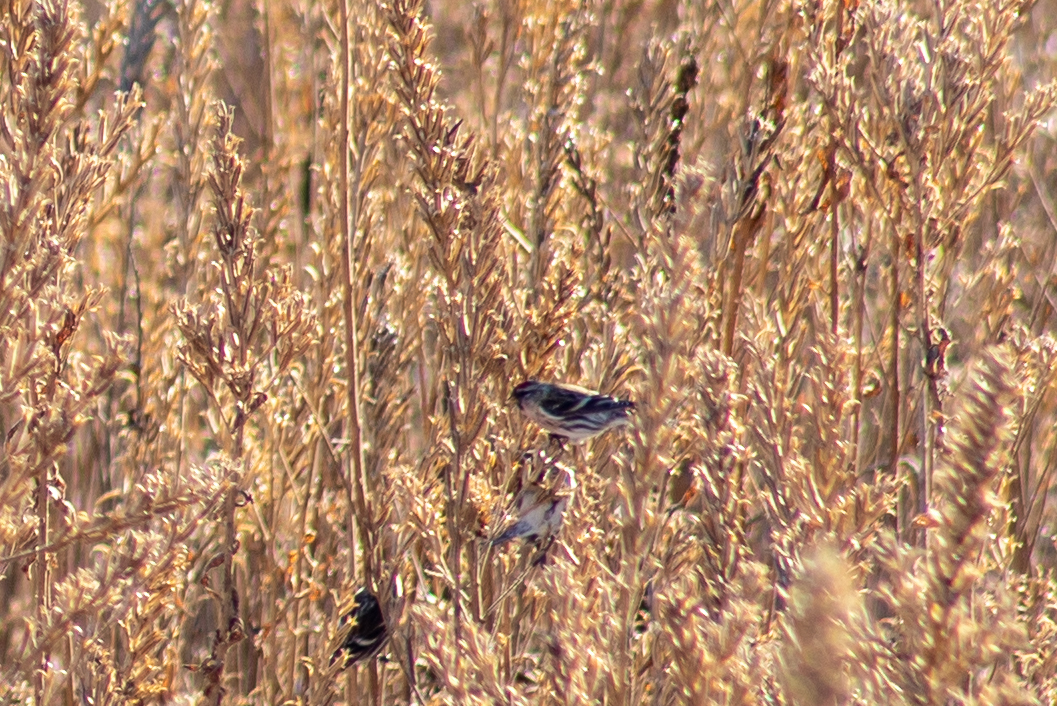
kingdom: Animalia
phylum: Chordata
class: Aves
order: Passeriformes
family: Fringillidae
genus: Acanthis
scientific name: Acanthis flammea
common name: Common redpoll
